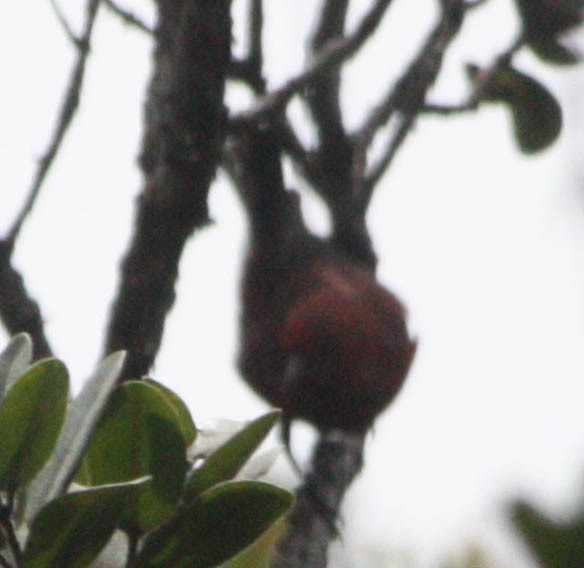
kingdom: Animalia
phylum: Chordata
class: Aves
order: Passeriformes
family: Fringillidae
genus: Himatione
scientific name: Himatione sanguinea
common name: Apapane
